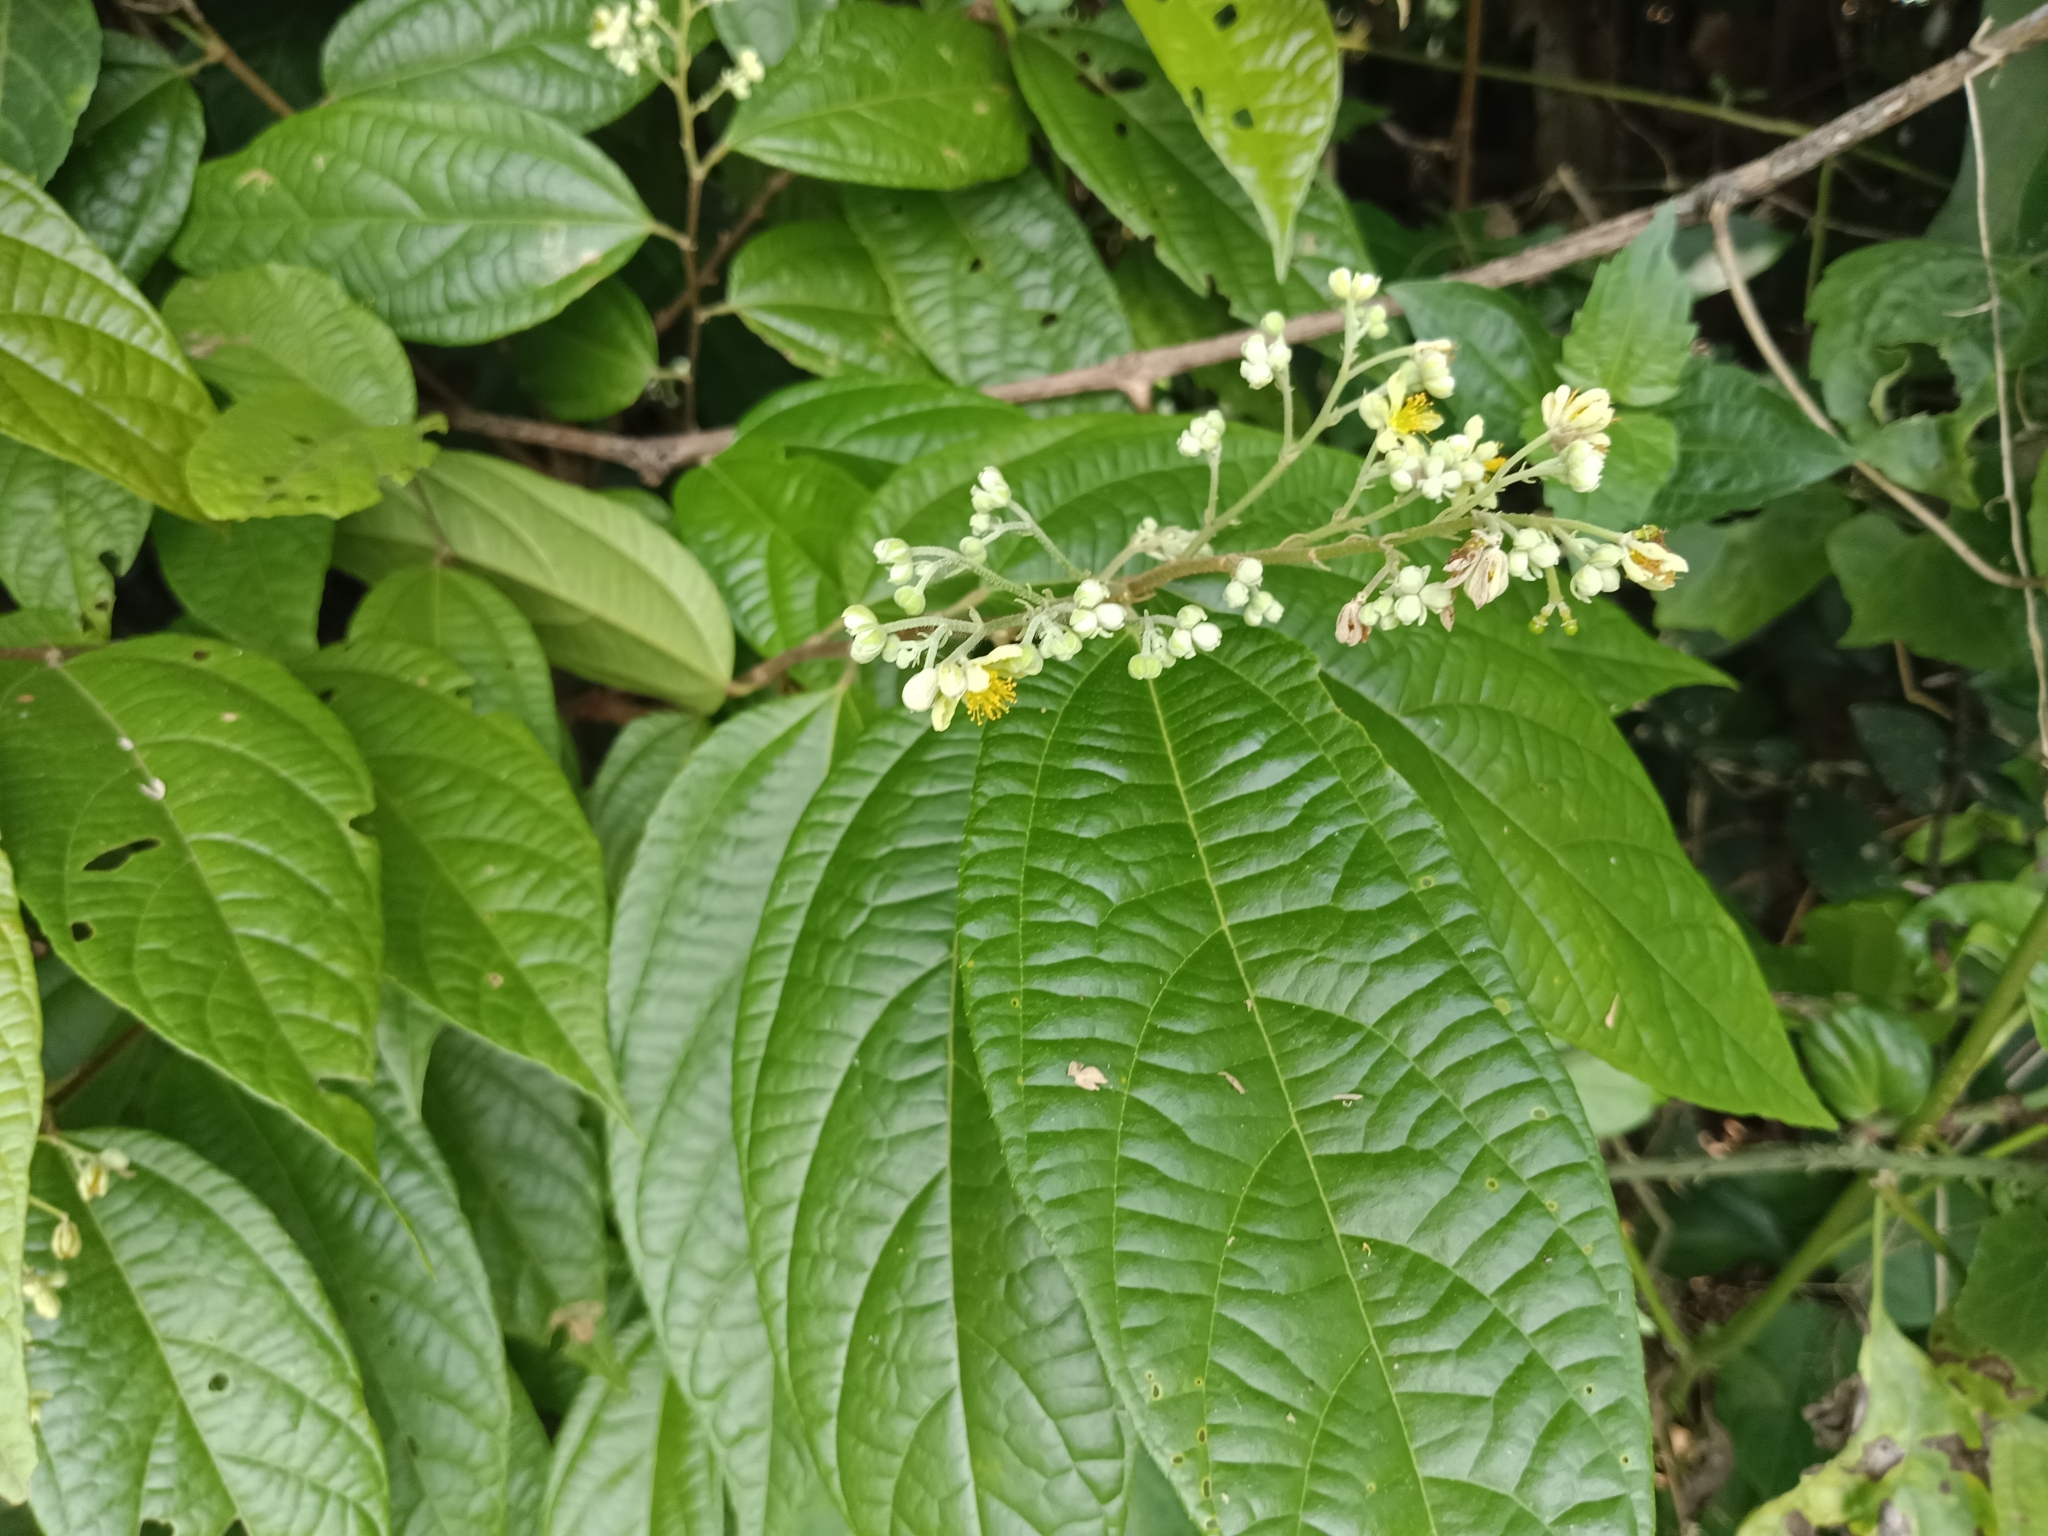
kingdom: Plantae
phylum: Tracheophyta
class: Magnoliopsida
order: Malvales
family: Malvaceae
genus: Microcos
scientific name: Microcos paniculata
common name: Microcos
